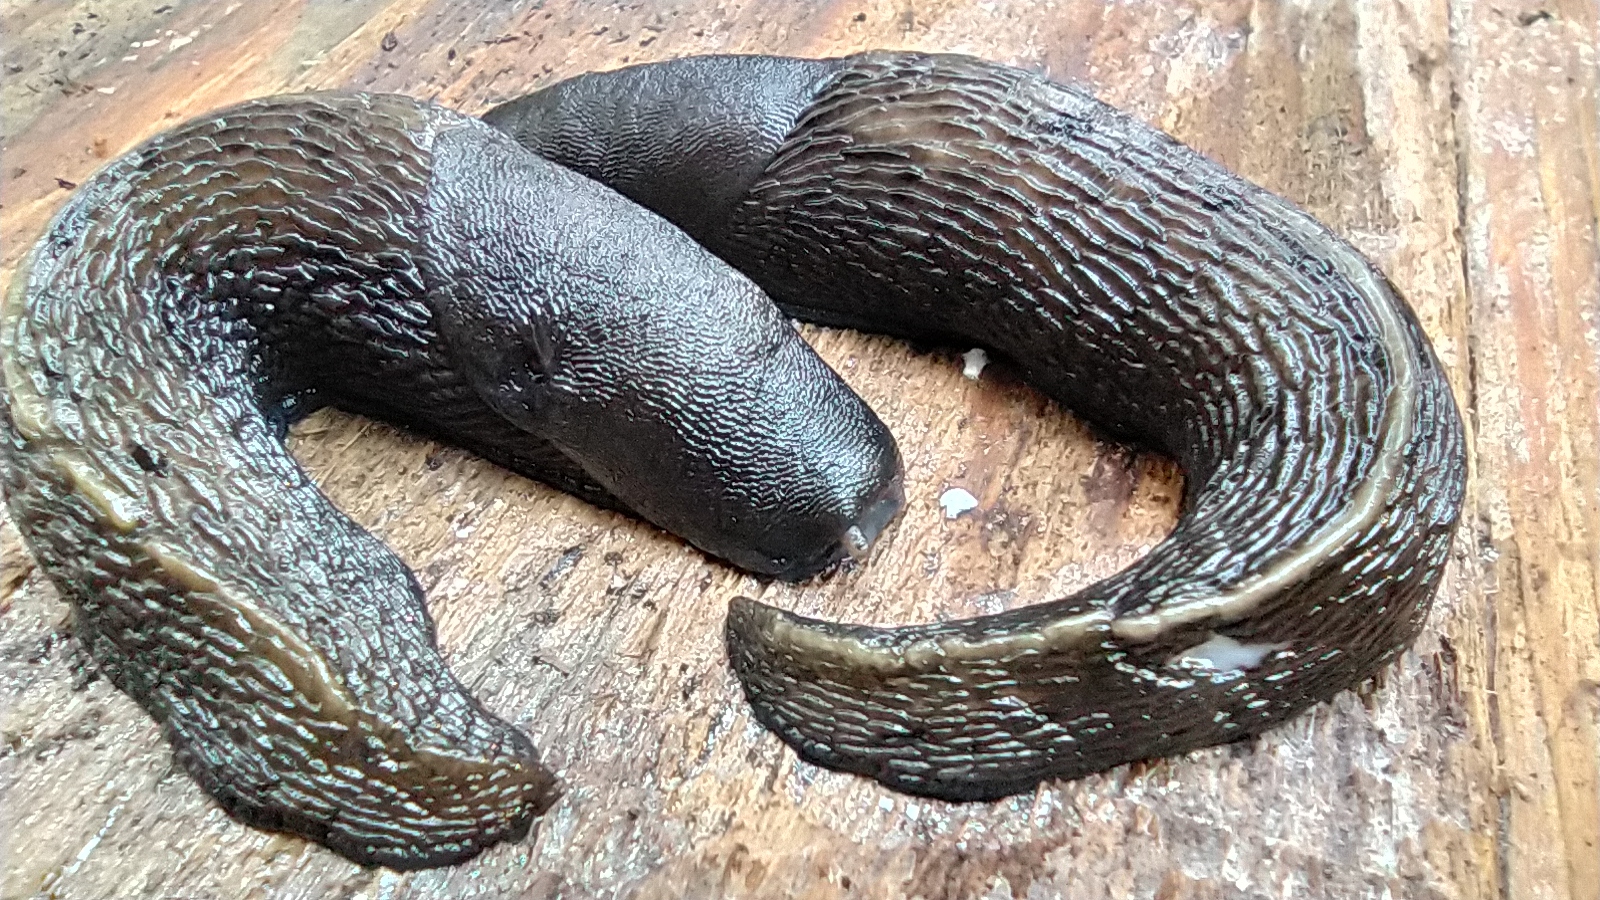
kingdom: Animalia
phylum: Mollusca
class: Gastropoda
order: Stylommatophora
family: Limacidae
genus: Limax
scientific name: Limax cinereoniger
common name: Ash-black slug
